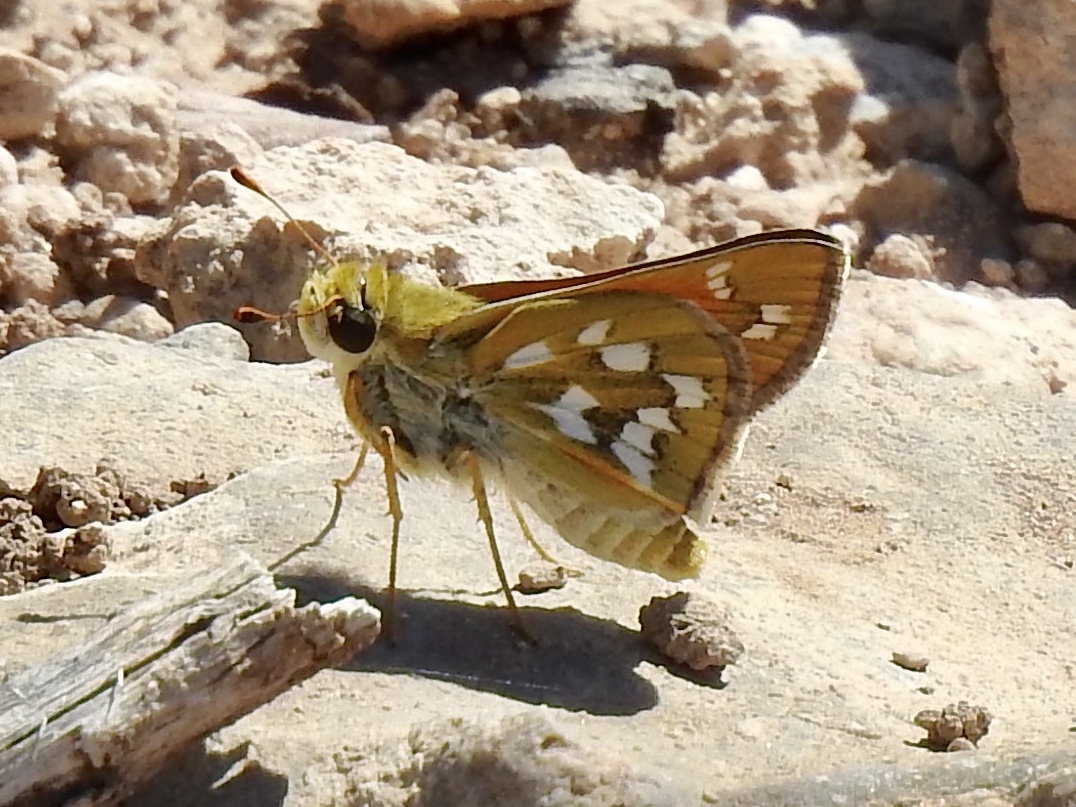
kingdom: Animalia
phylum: Arthropoda
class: Insecta
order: Lepidoptera
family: Hesperiidae
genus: Hesperia
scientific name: Hesperia viridis
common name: Green skipper
